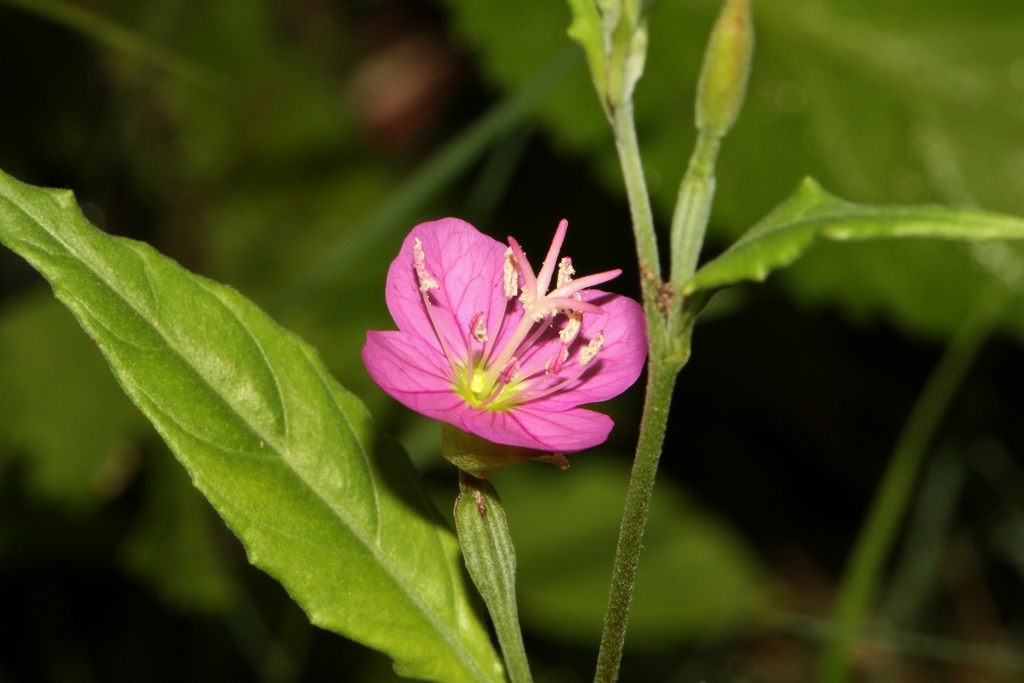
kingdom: Plantae
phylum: Tracheophyta
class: Magnoliopsida
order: Myrtales
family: Onagraceae
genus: Oenothera
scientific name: Oenothera rosea
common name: Rosy evening-primrose
